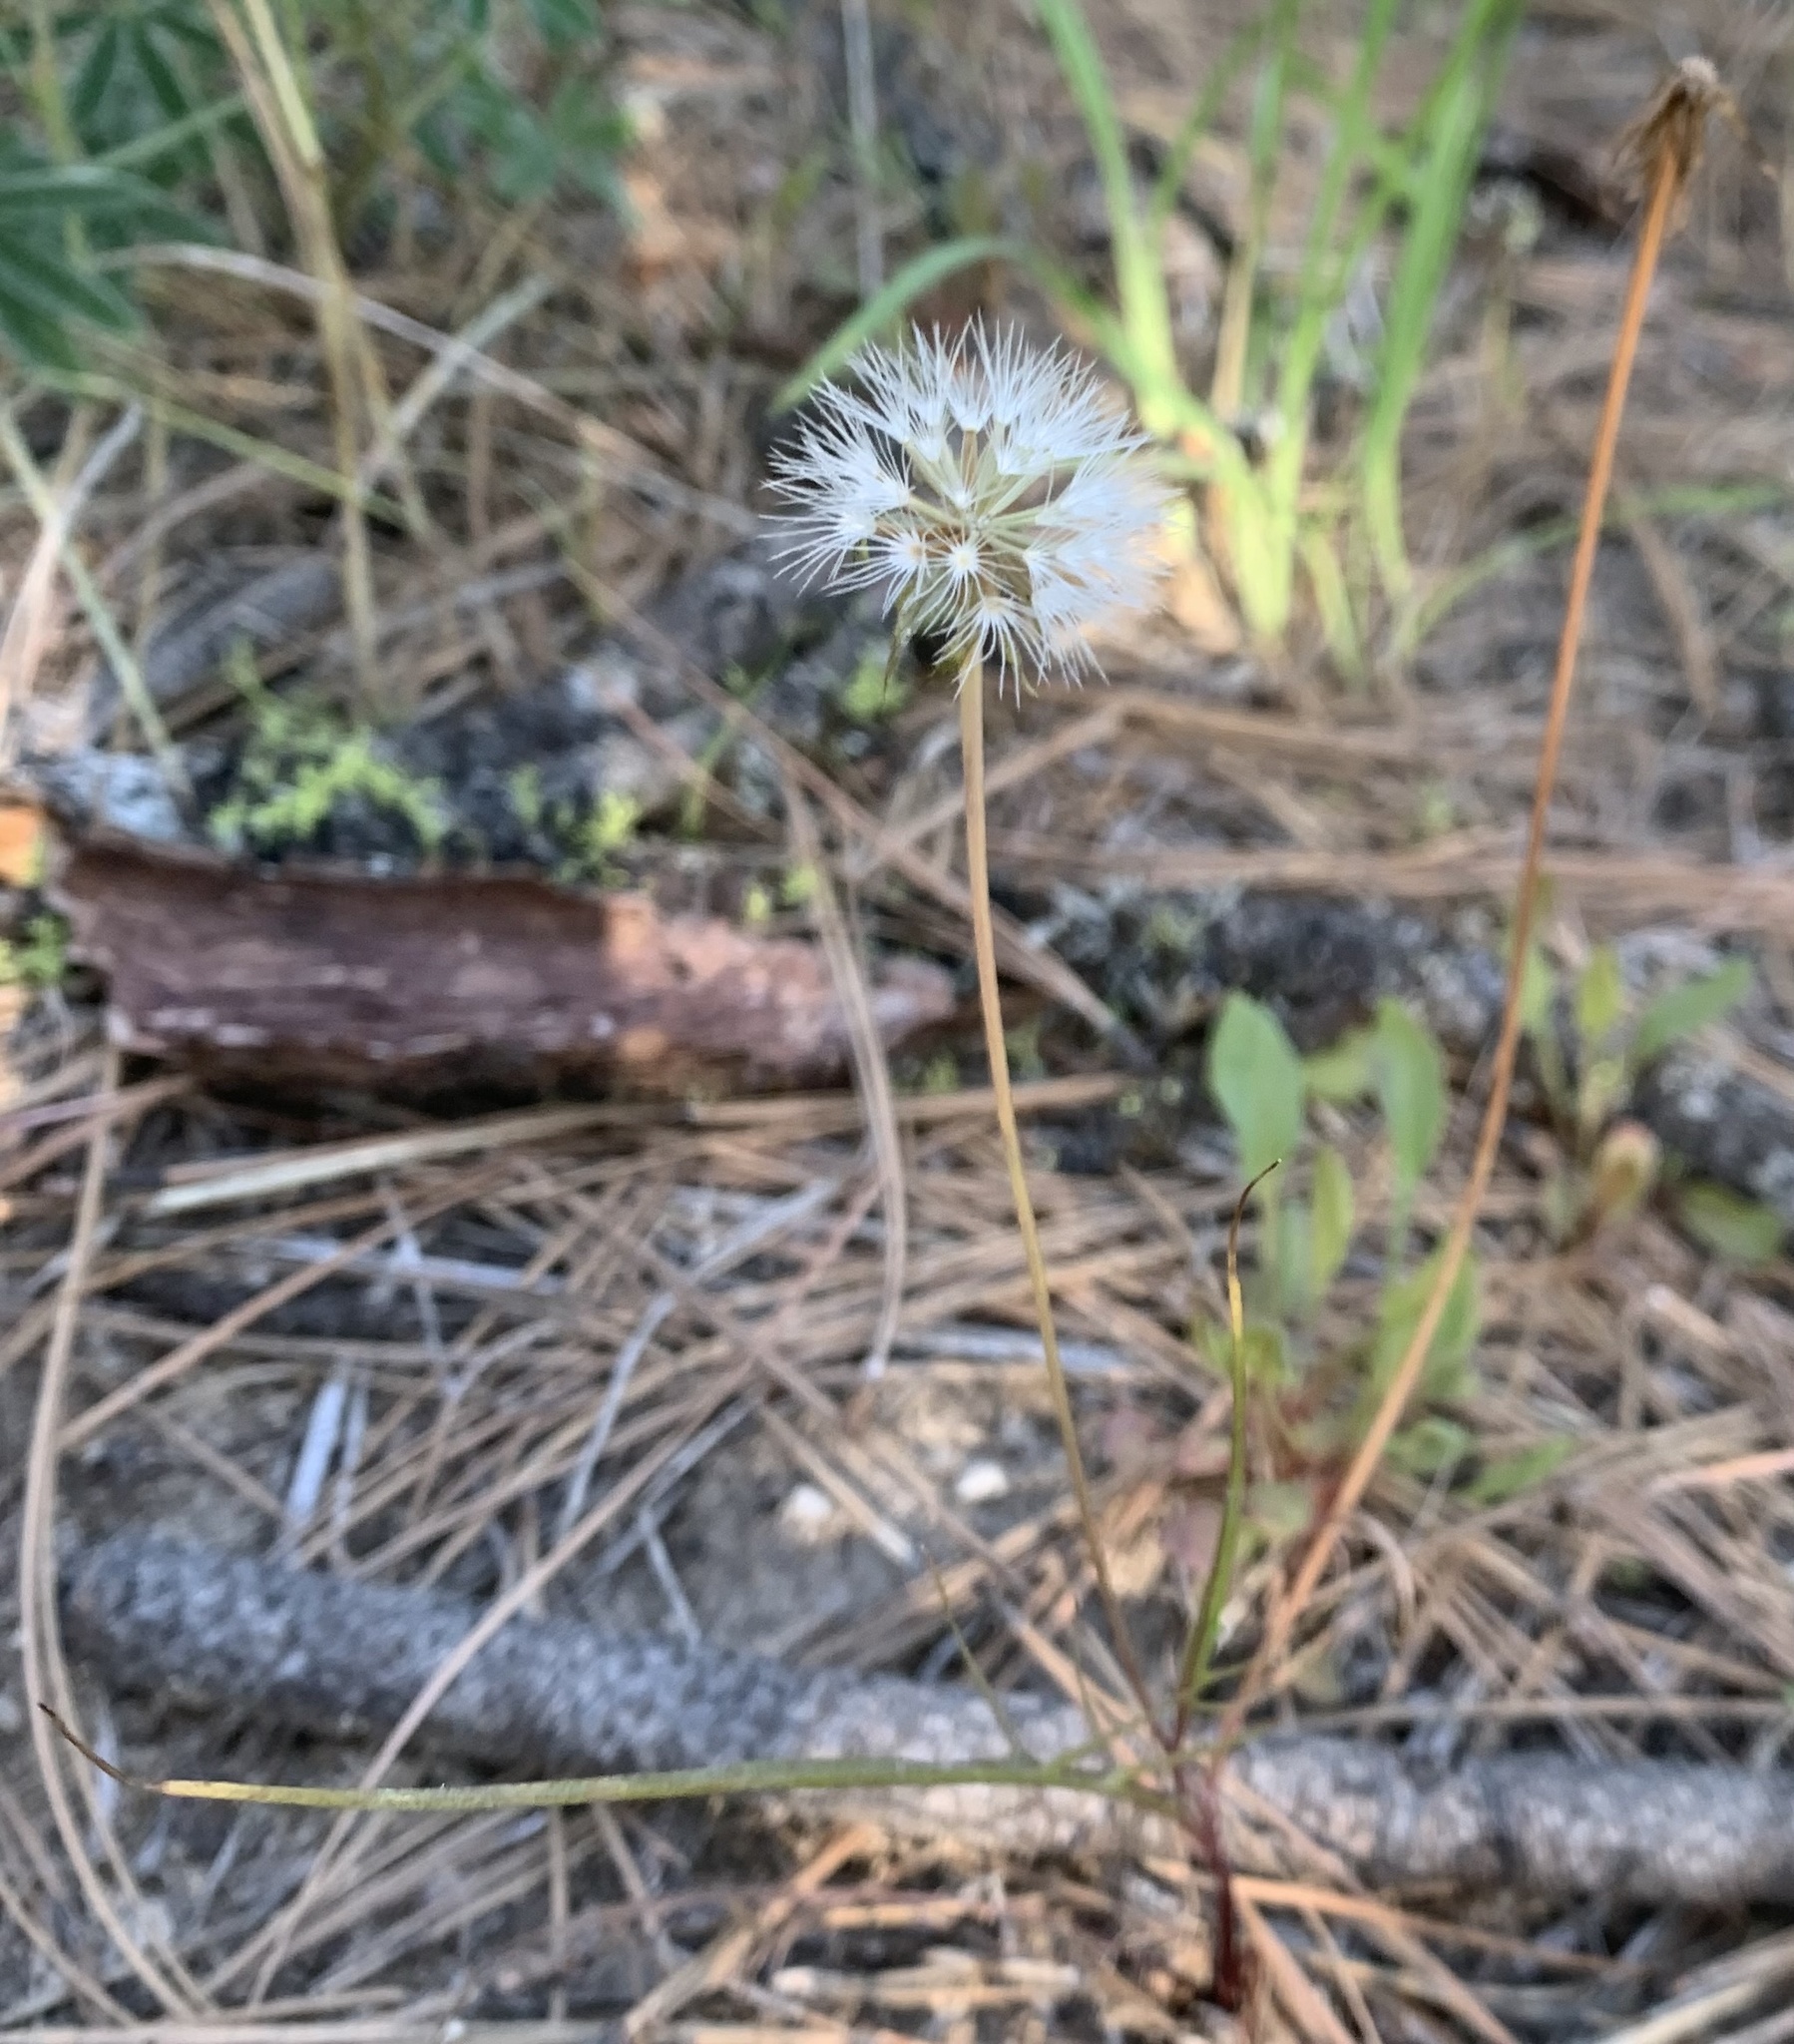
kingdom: Plantae
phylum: Tracheophyta
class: Magnoliopsida
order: Asterales
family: Asteraceae
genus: Microseris
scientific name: Microseris nutans
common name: Nodding microseris
